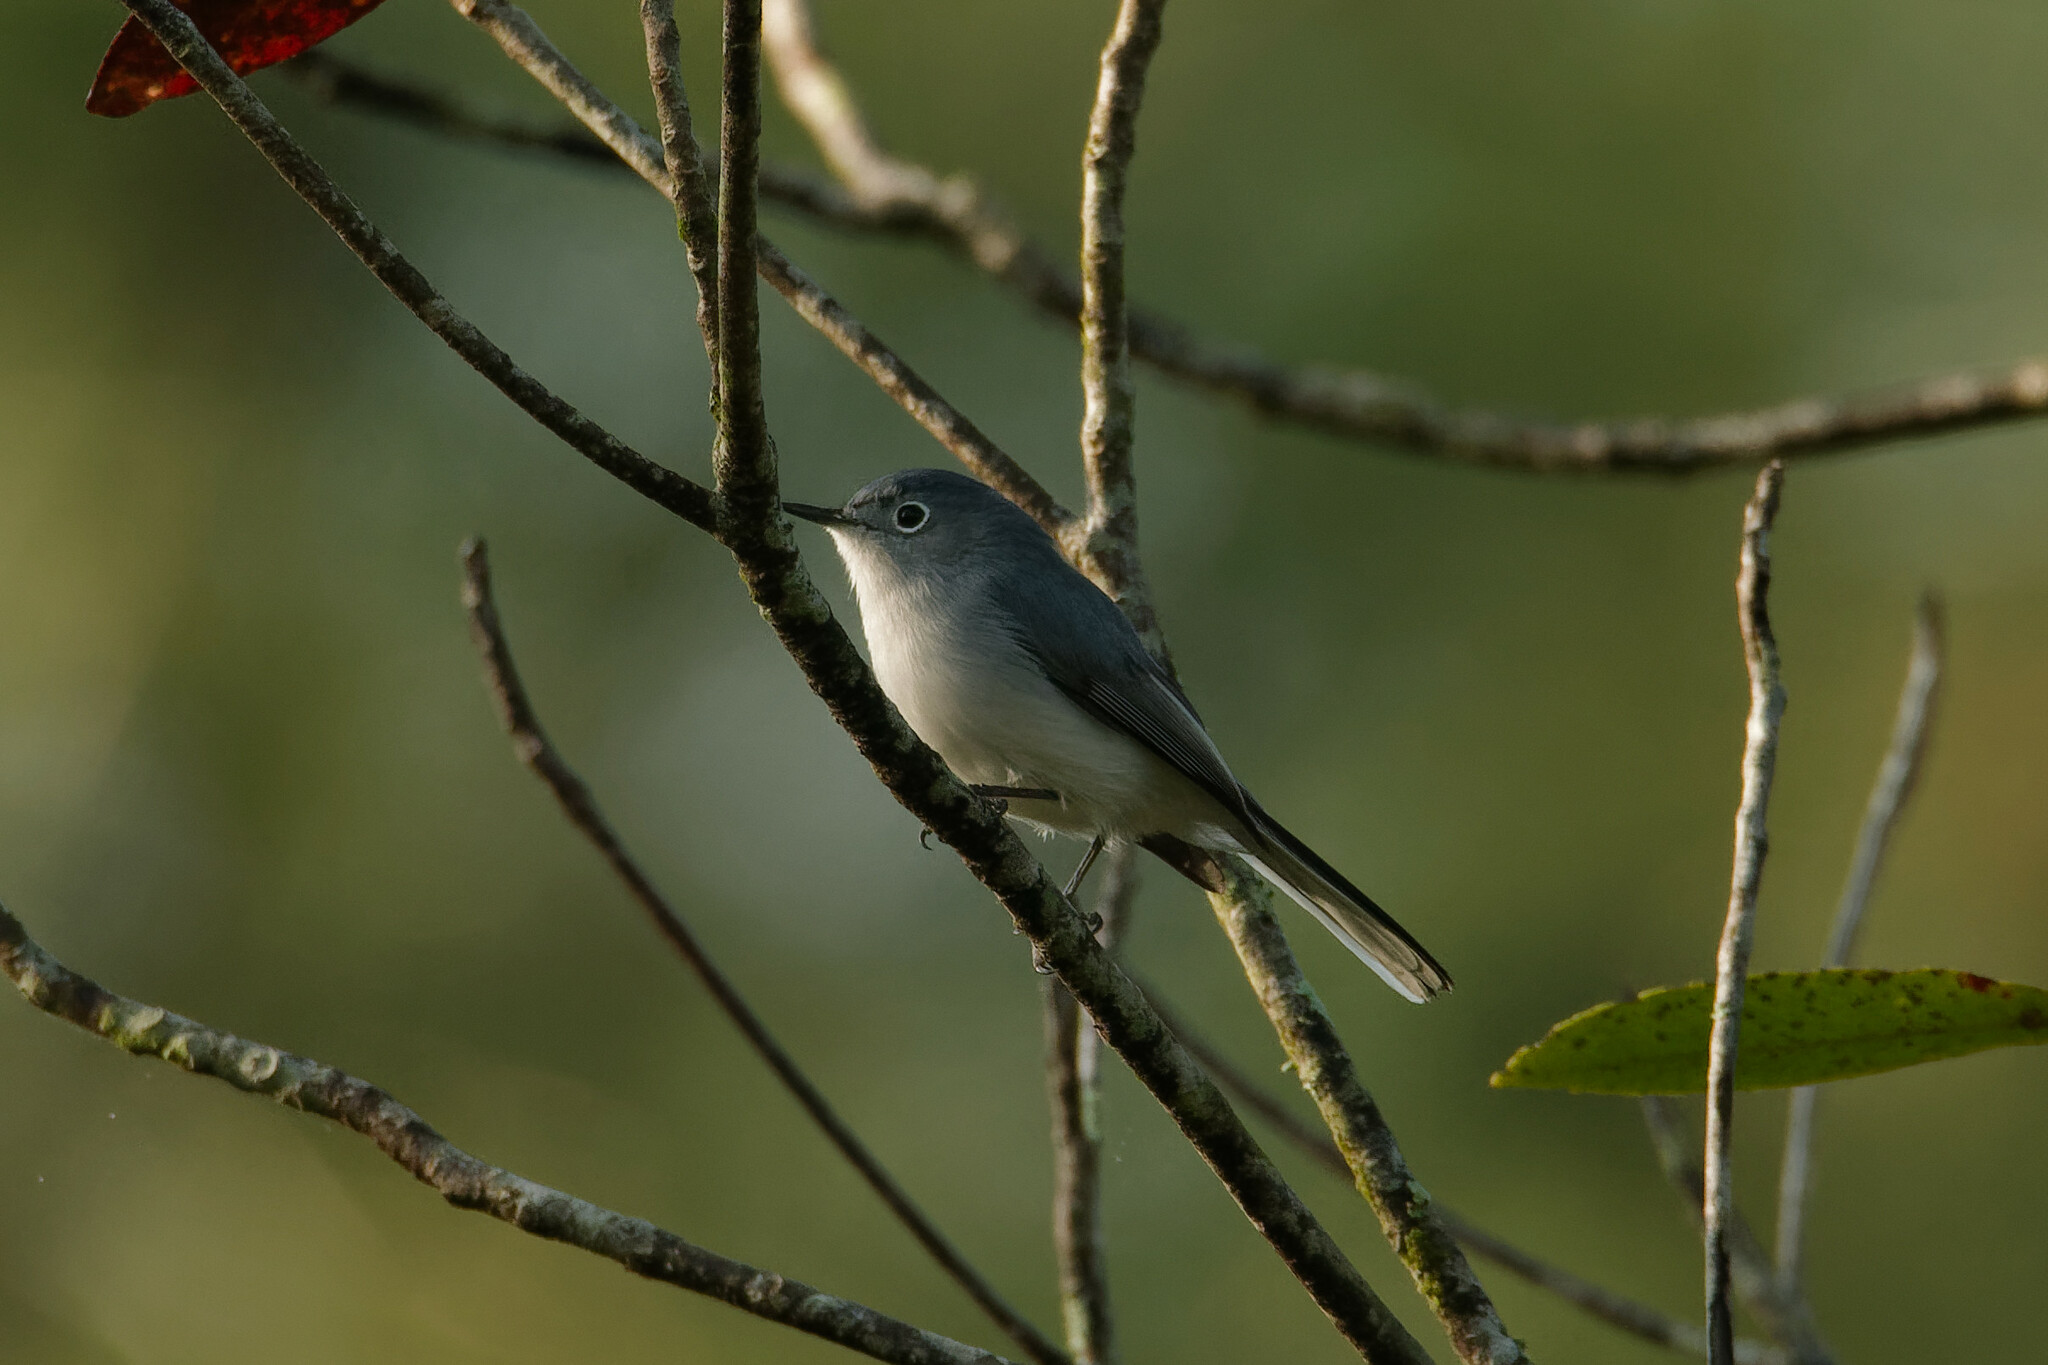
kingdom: Animalia
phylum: Chordata
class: Aves
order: Passeriformes
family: Polioptilidae
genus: Polioptila
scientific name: Polioptila caerulea
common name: Blue-gray gnatcatcher
